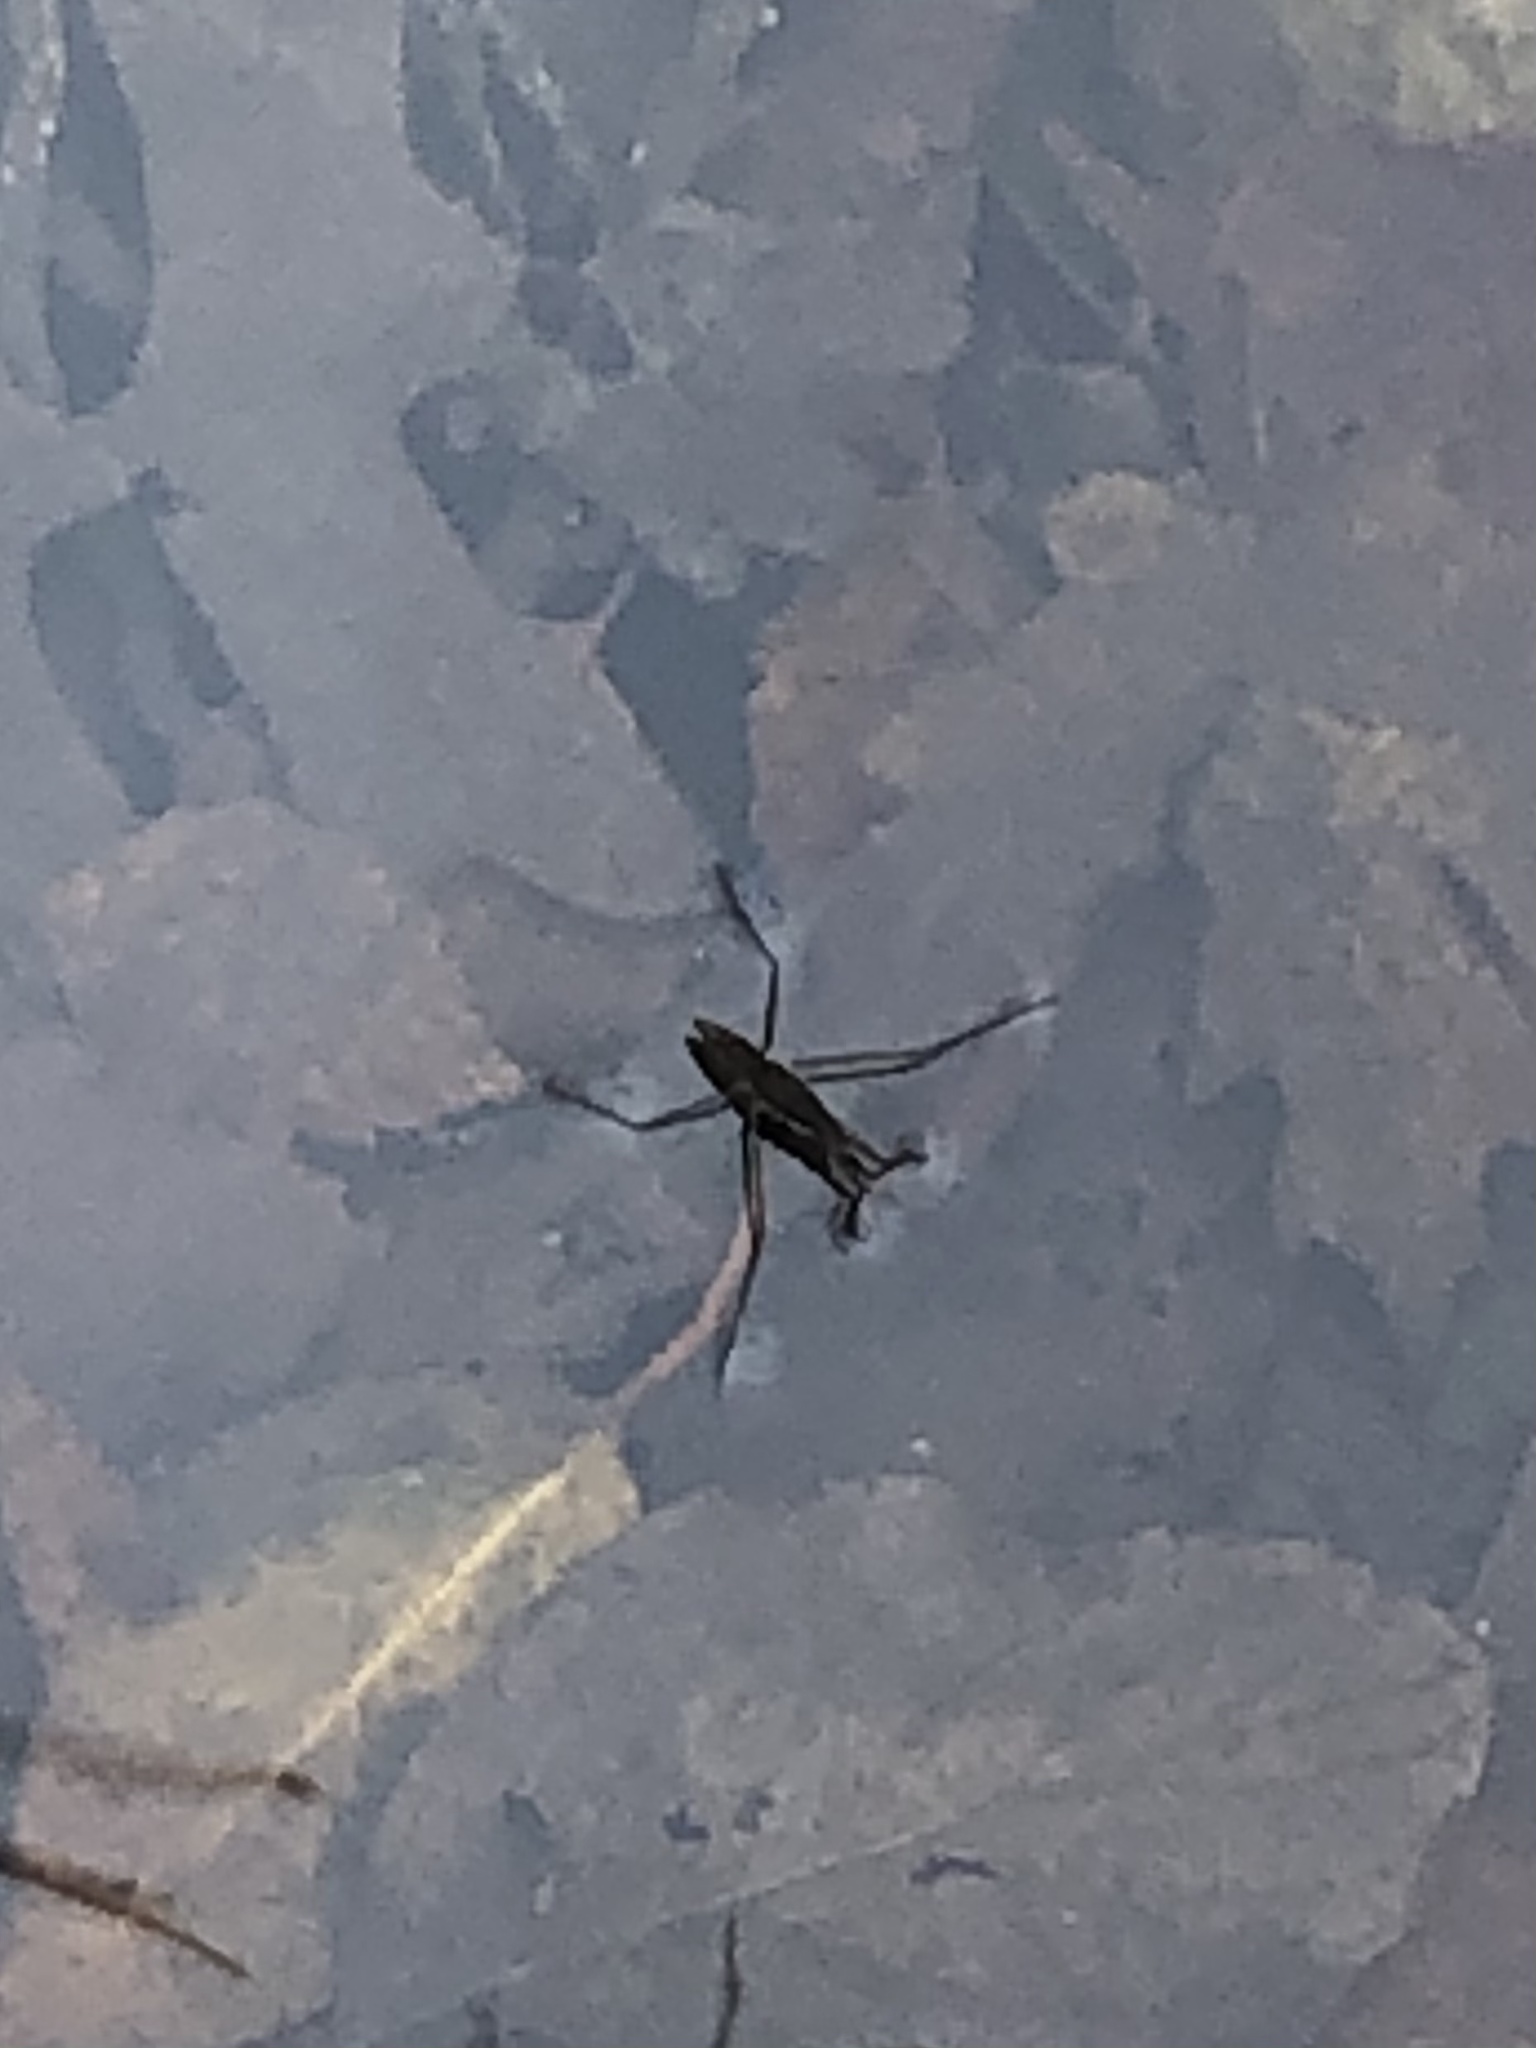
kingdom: Animalia
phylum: Arthropoda
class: Insecta
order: Hemiptera
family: Gerridae
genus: Aquarius
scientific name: Aquarius remigis
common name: Common water strider
